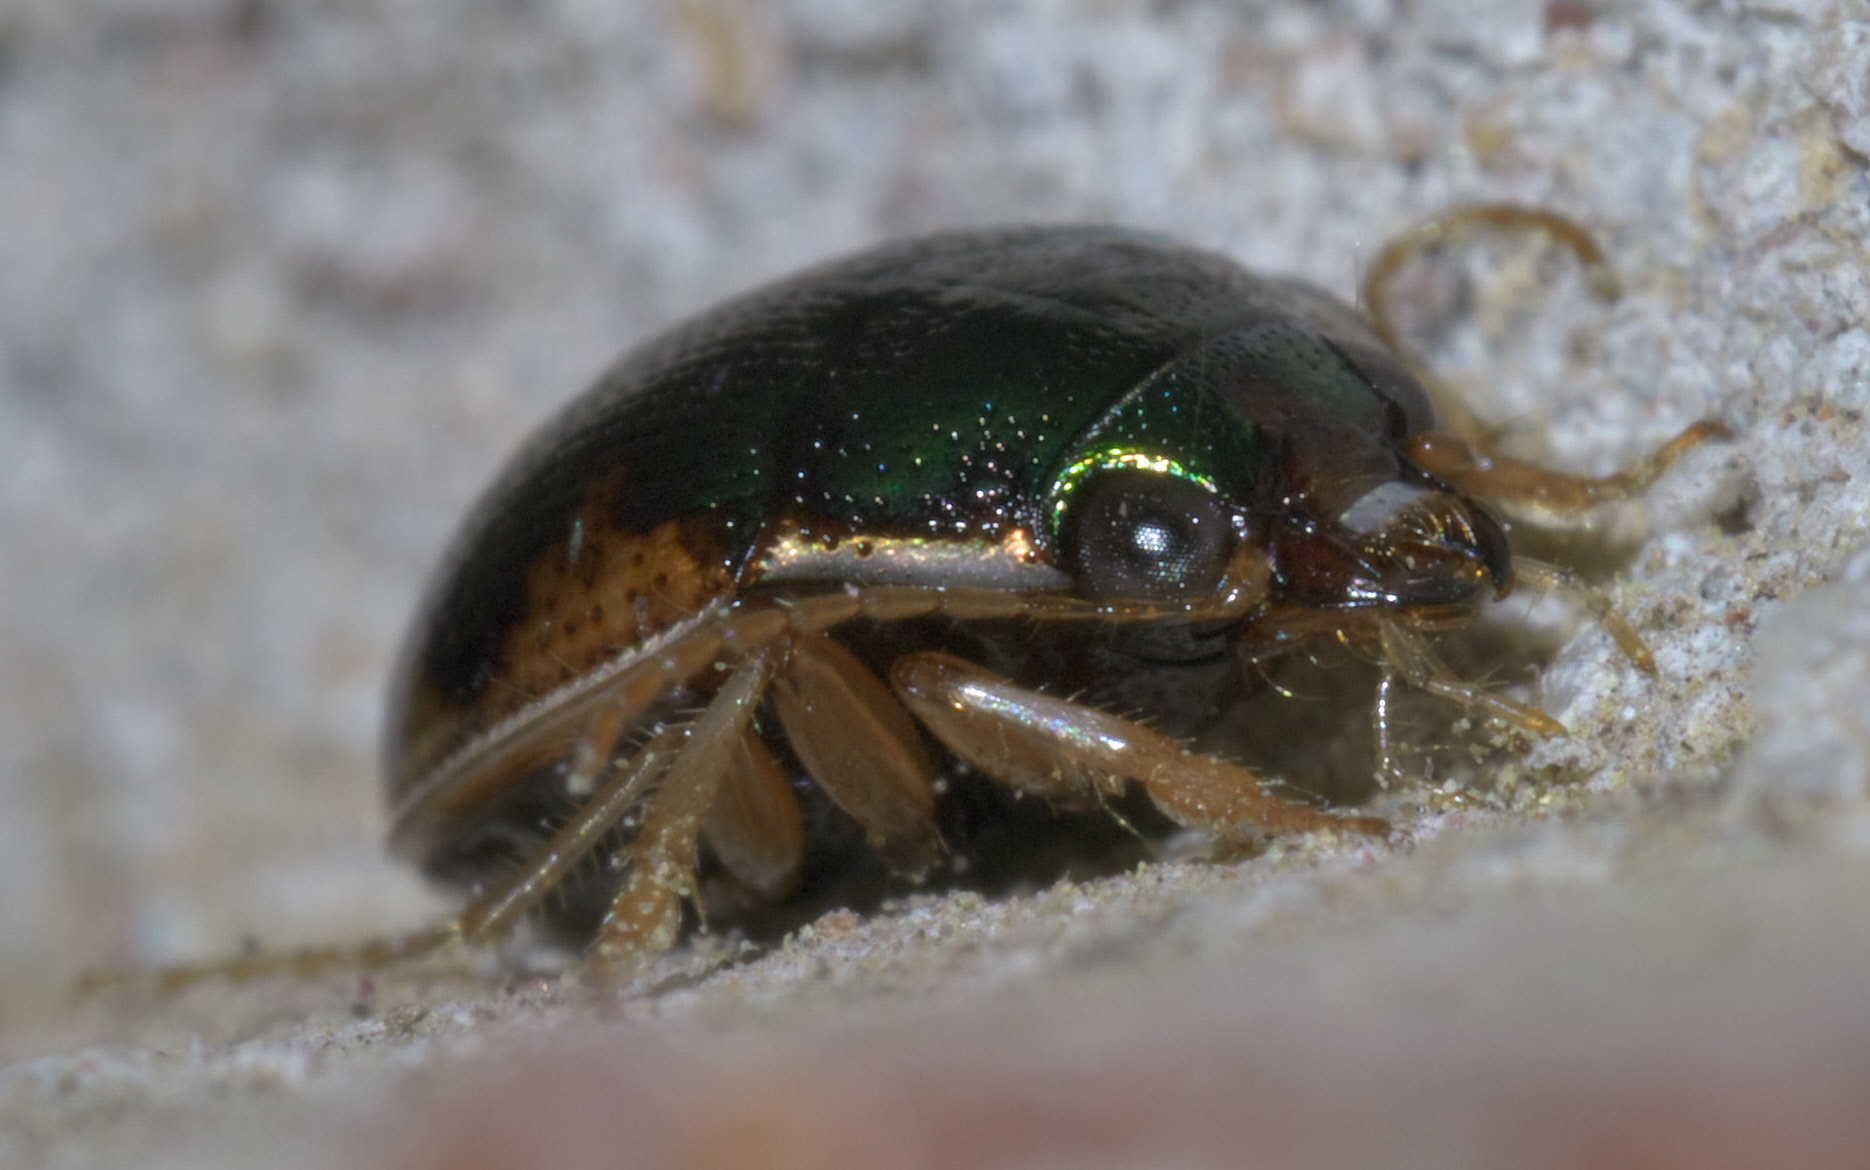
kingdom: Animalia
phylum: Arthropoda
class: Insecta
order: Coleoptera
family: Carabidae
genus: Omophron
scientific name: Omophron nitidum
